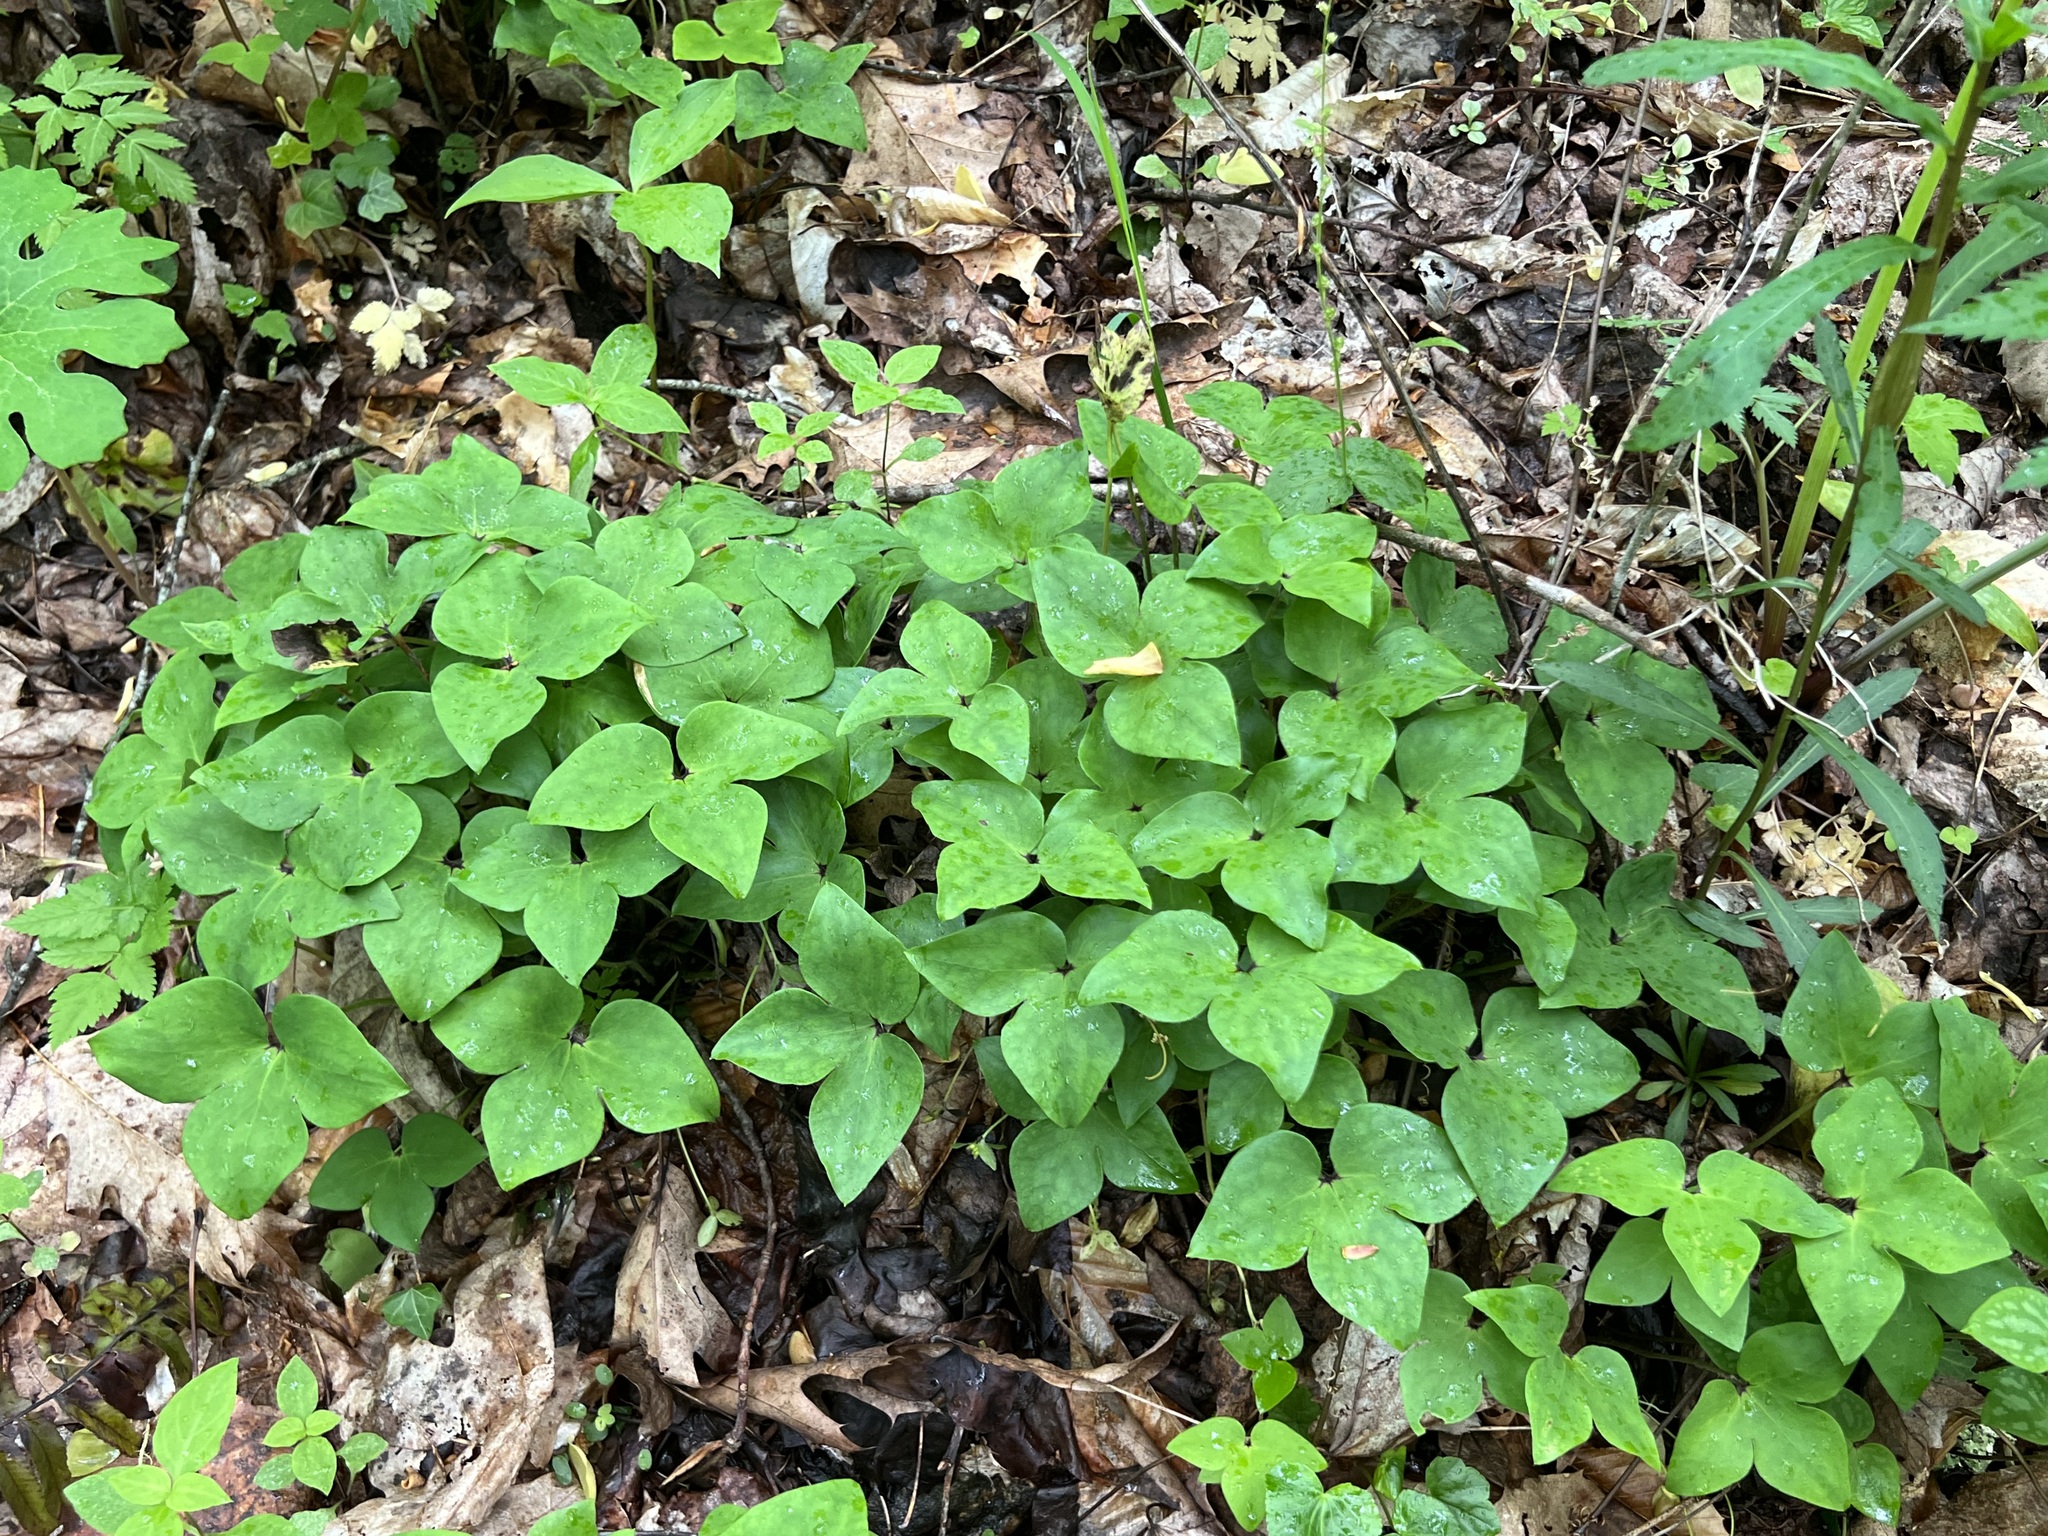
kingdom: Plantae
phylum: Tracheophyta
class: Magnoliopsida
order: Ranunculales
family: Ranunculaceae
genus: Hepatica
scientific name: Hepatica acutiloba
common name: Sharp-lobed hepatica
